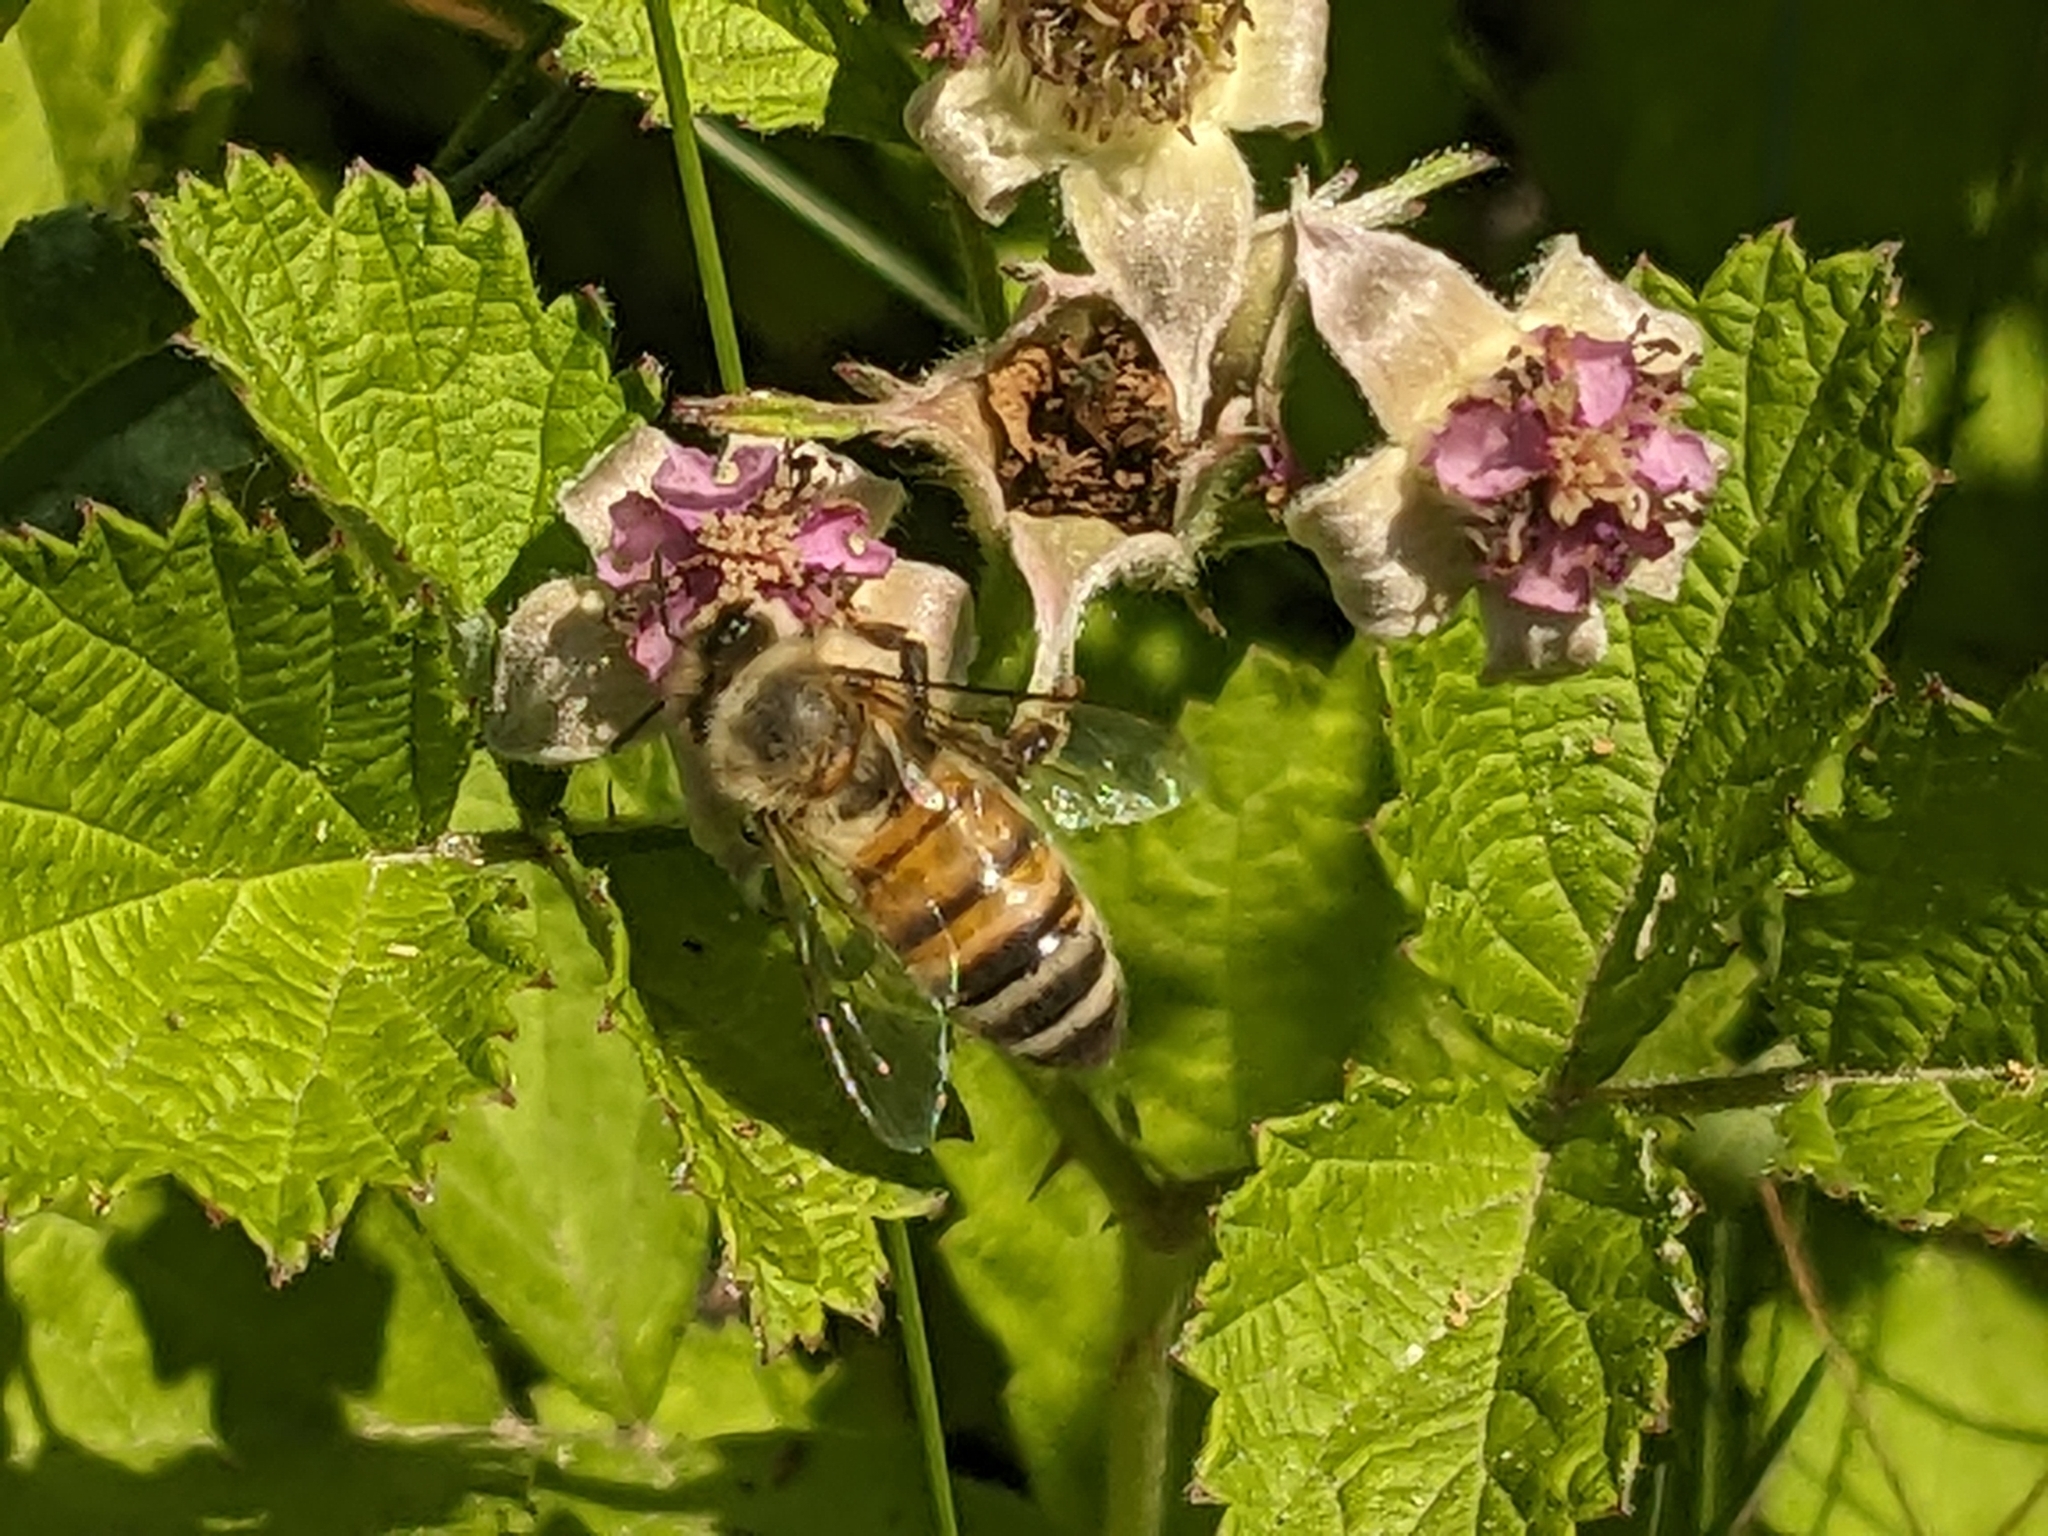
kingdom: Animalia
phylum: Arthropoda
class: Insecta
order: Hymenoptera
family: Apidae
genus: Apis
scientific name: Apis mellifera
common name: Honey bee
